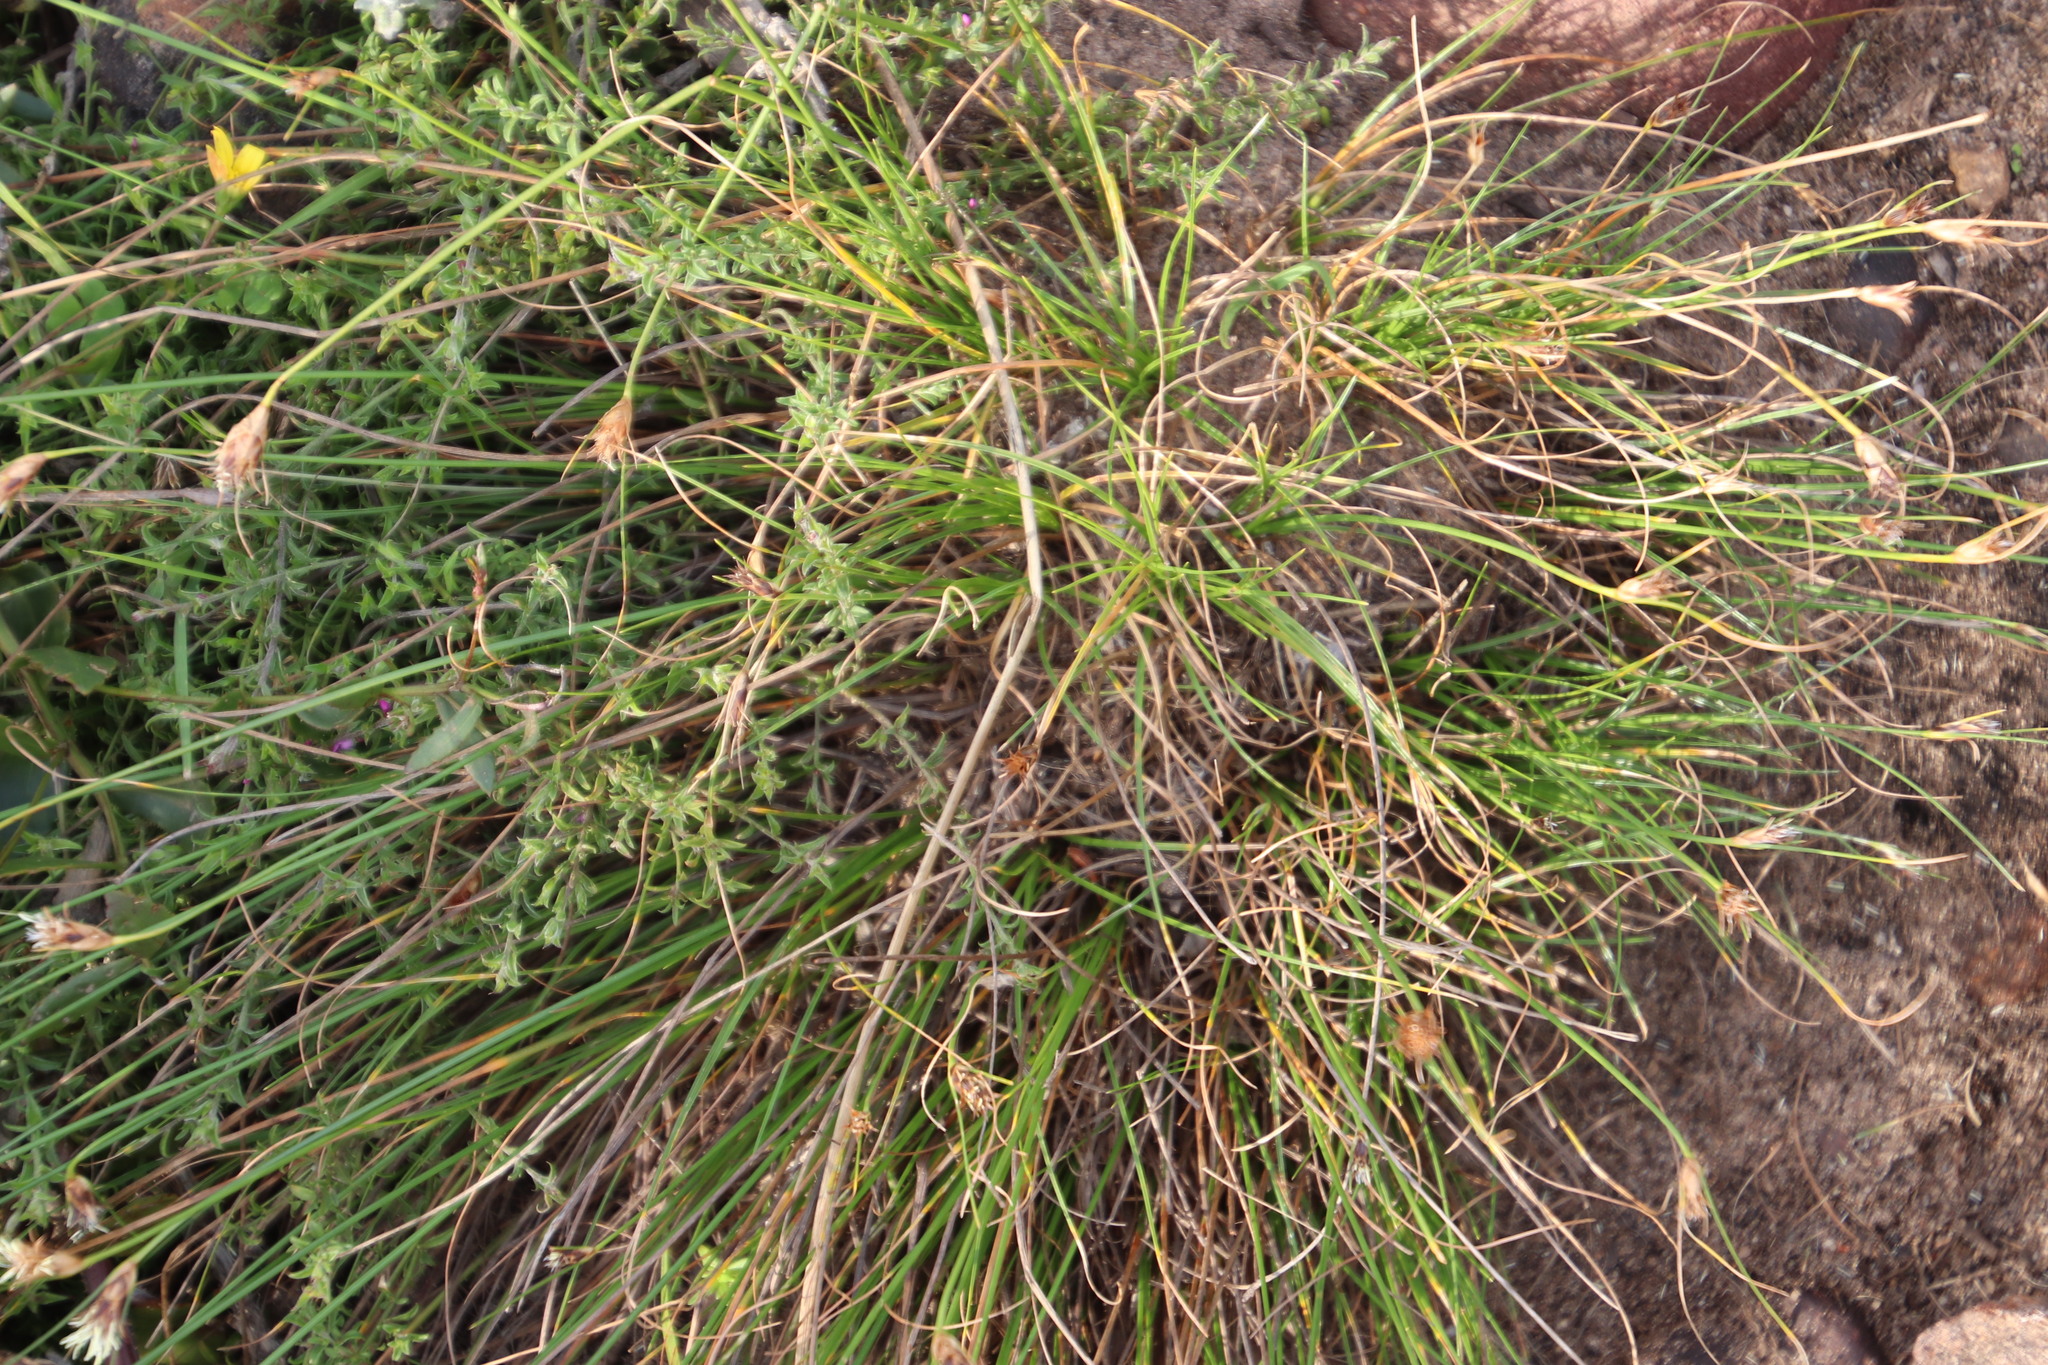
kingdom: Plantae
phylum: Tracheophyta
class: Liliopsida
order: Poales
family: Cyperaceae
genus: Ficinia
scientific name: Ficinia nigrescens
